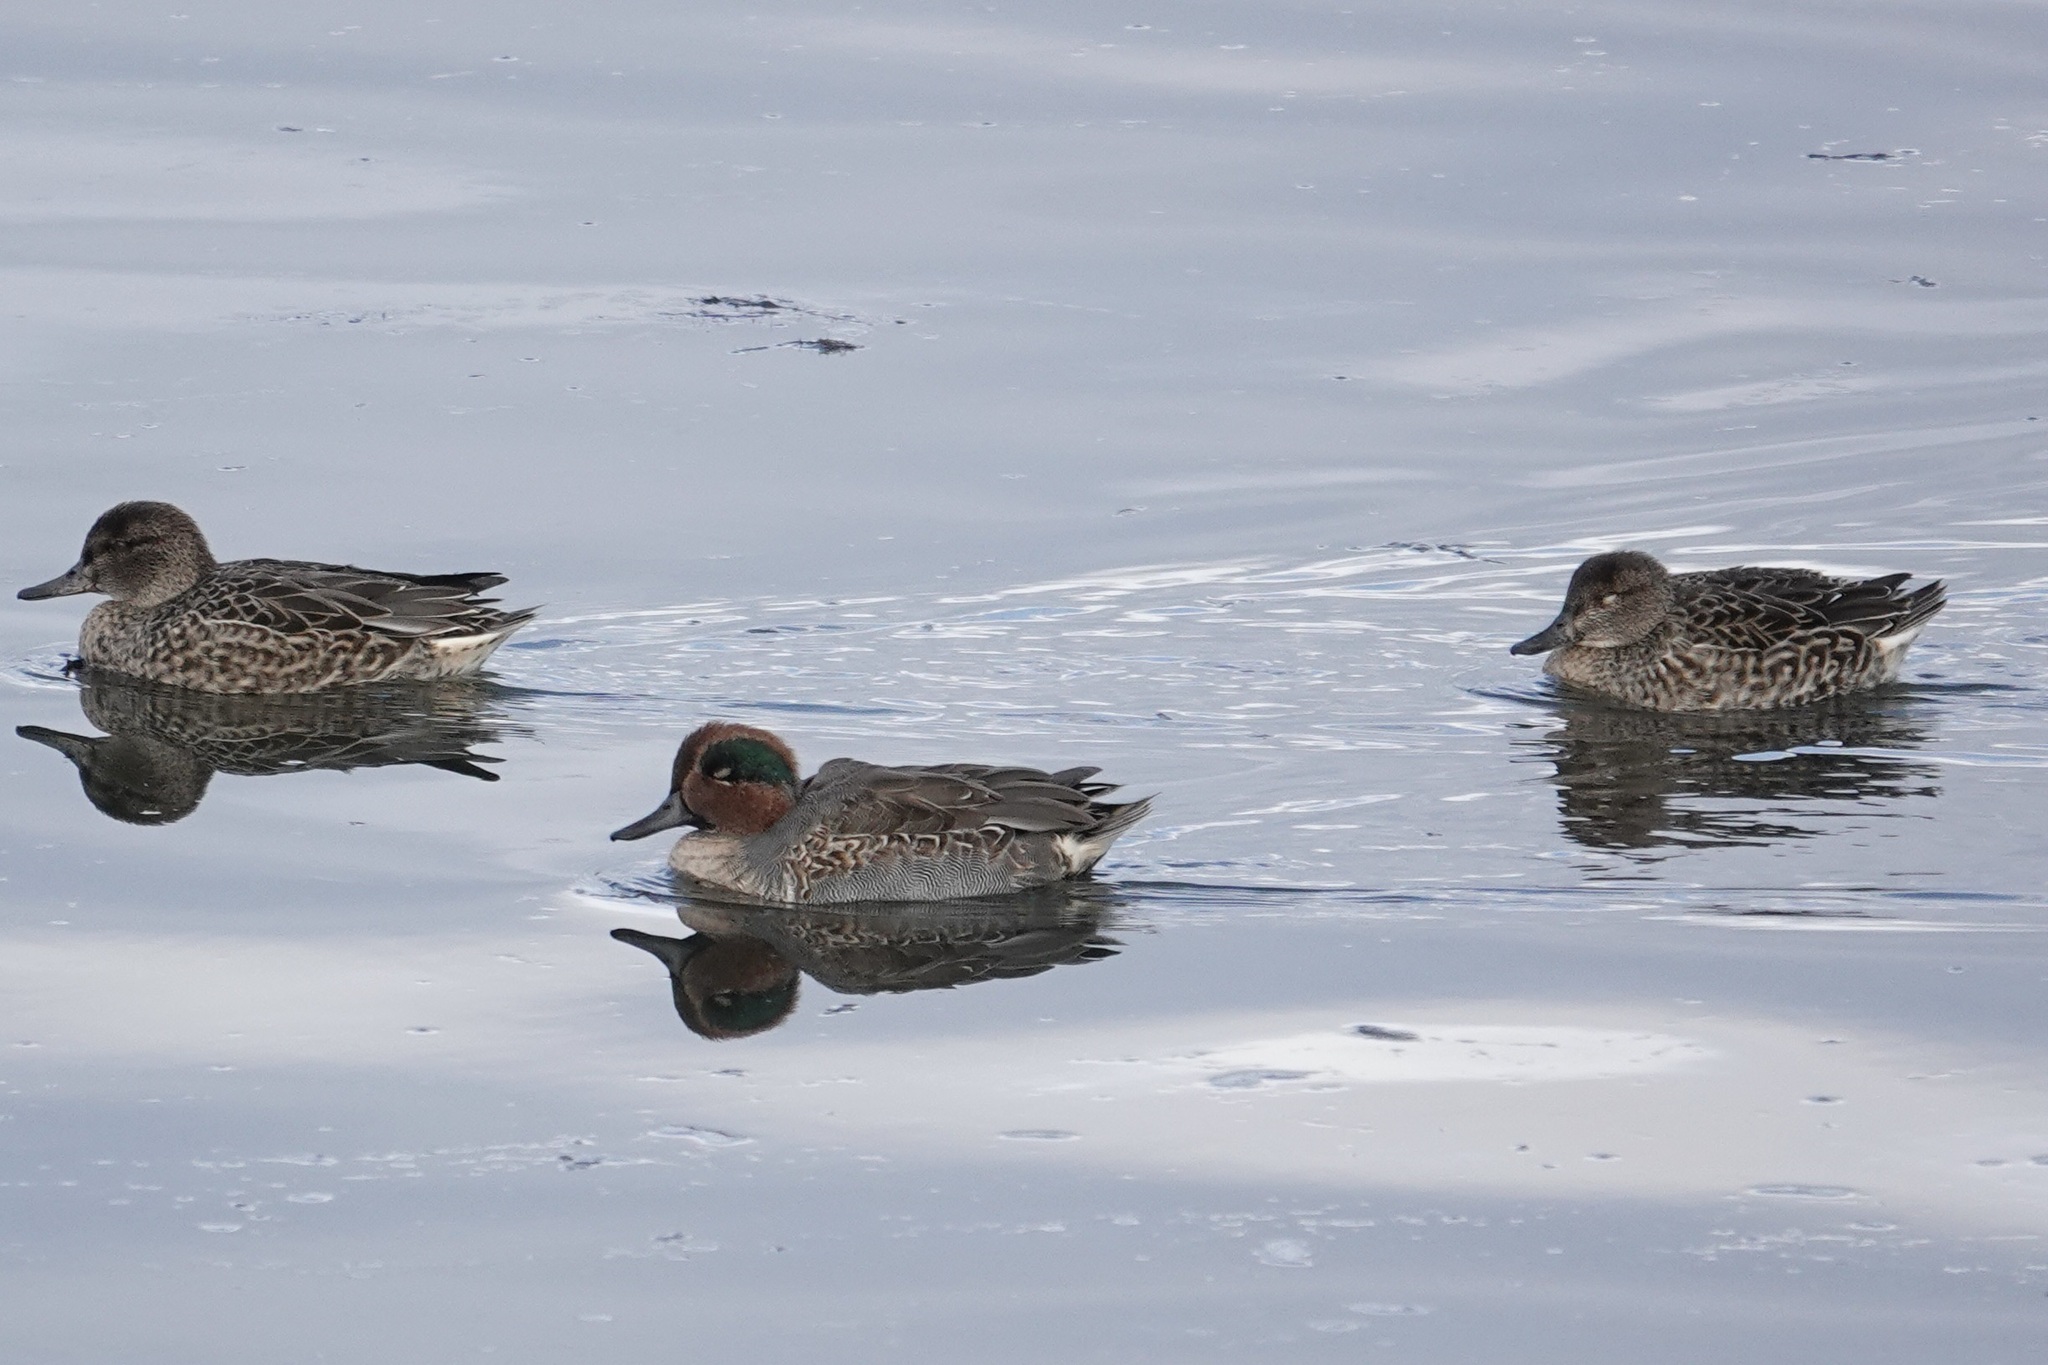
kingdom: Animalia
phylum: Chordata
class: Aves
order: Anseriformes
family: Anatidae
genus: Anas
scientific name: Anas crecca
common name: Eurasian teal
